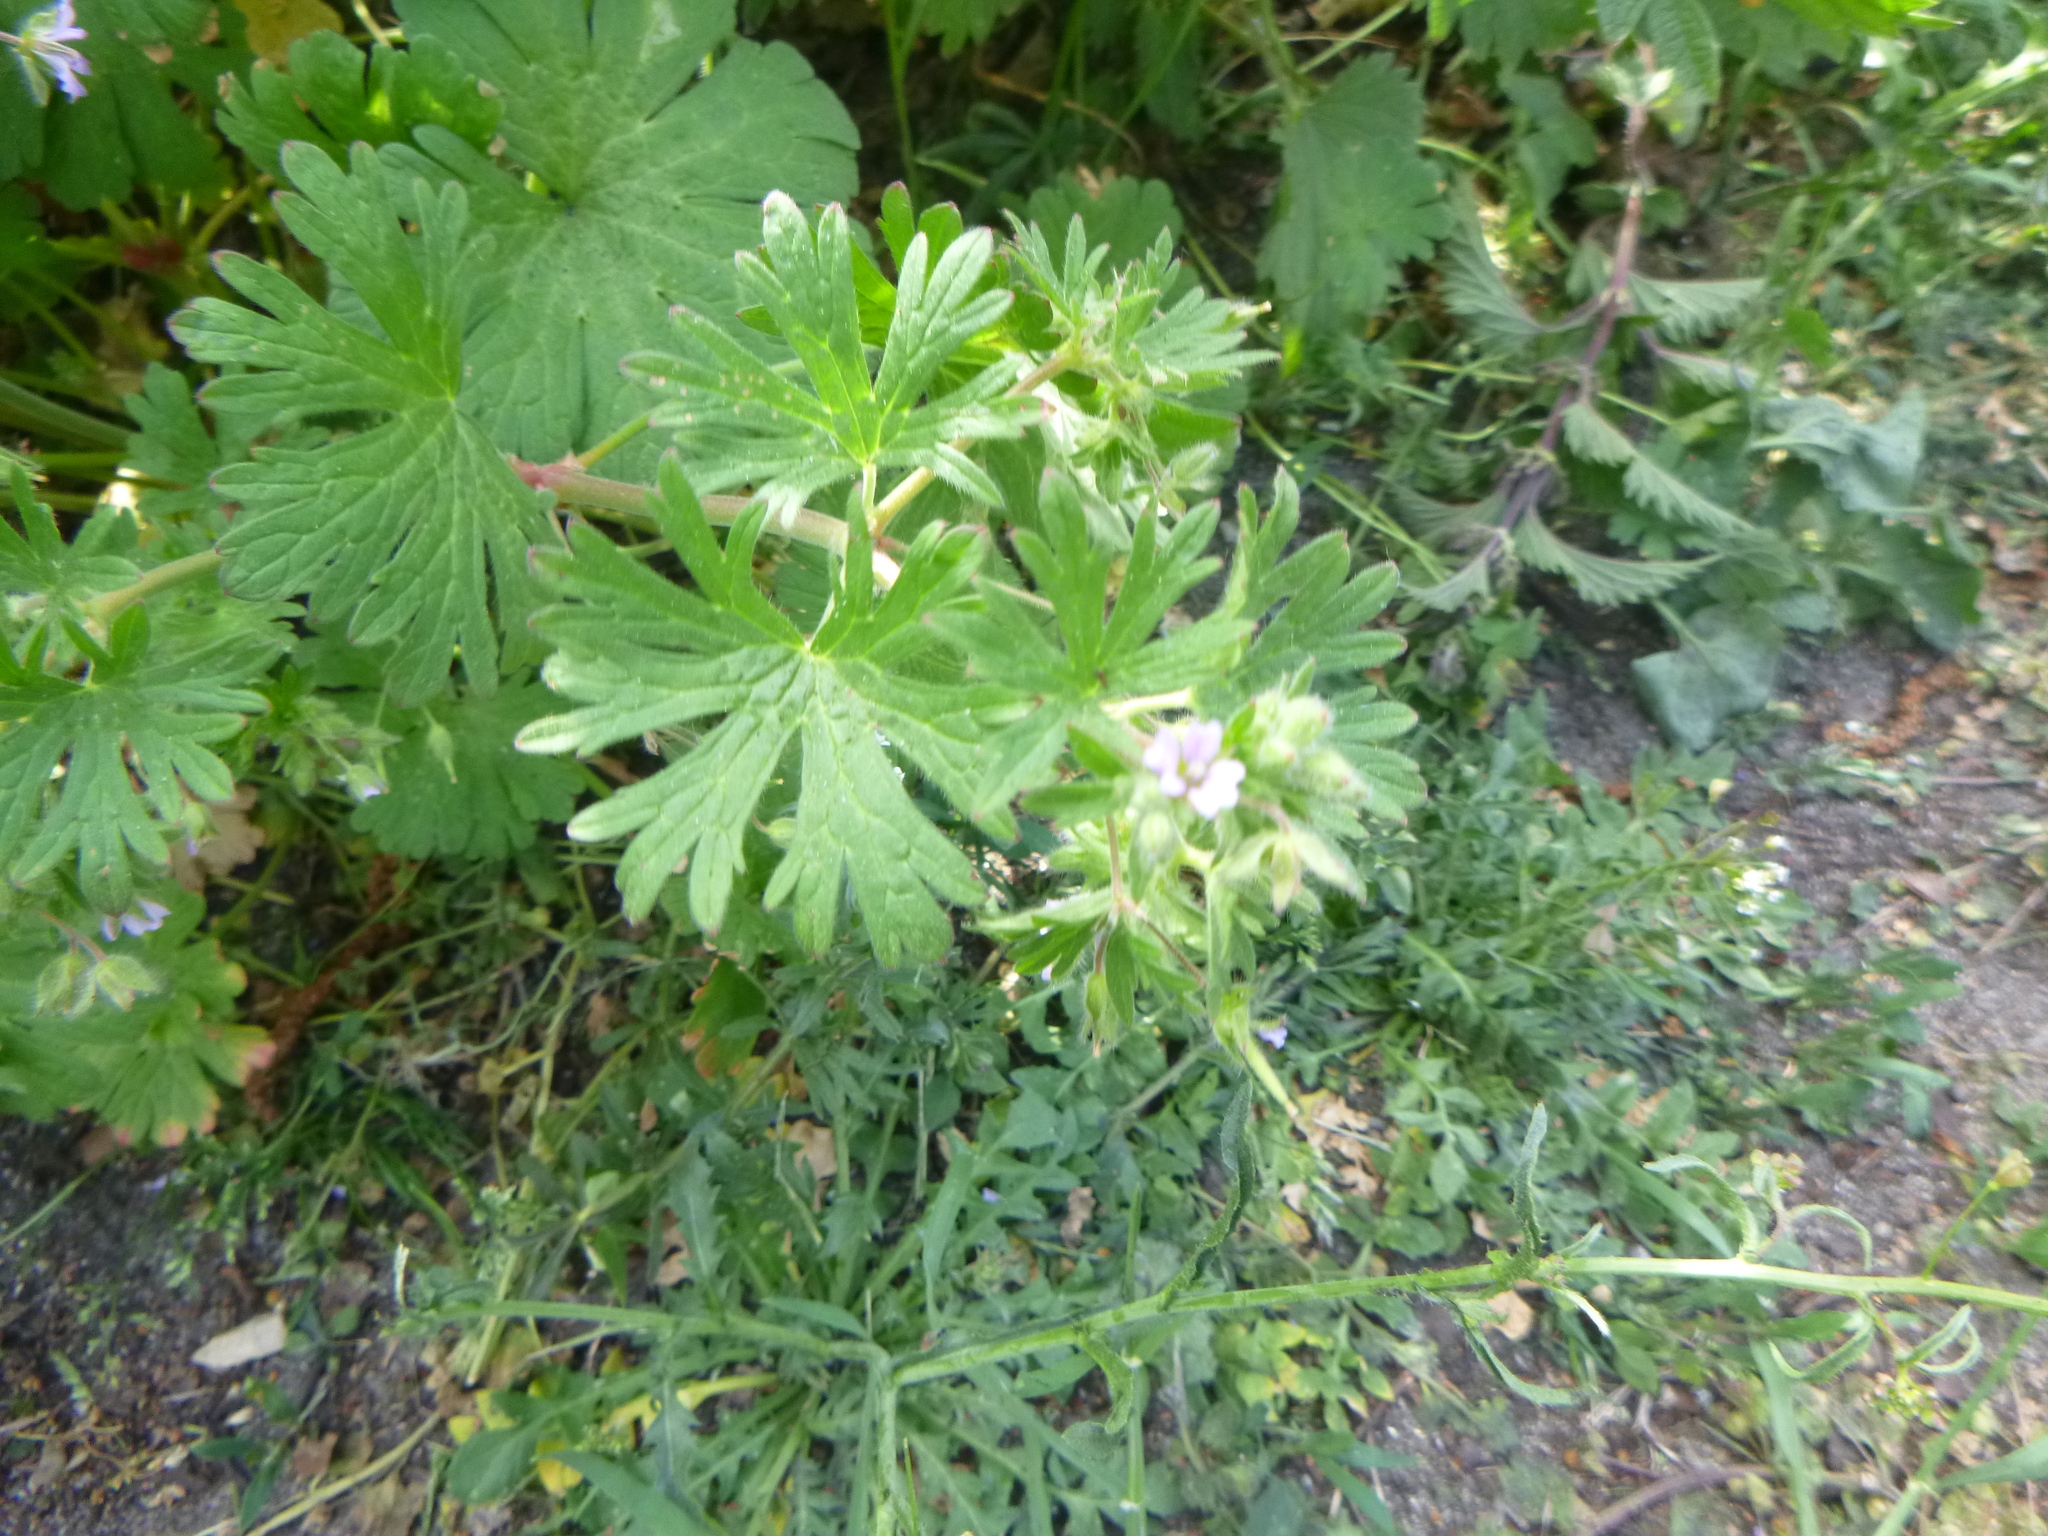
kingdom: Plantae
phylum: Tracheophyta
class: Magnoliopsida
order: Geraniales
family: Geraniaceae
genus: Geranium
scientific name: Geranium pusillum
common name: Small geranium
